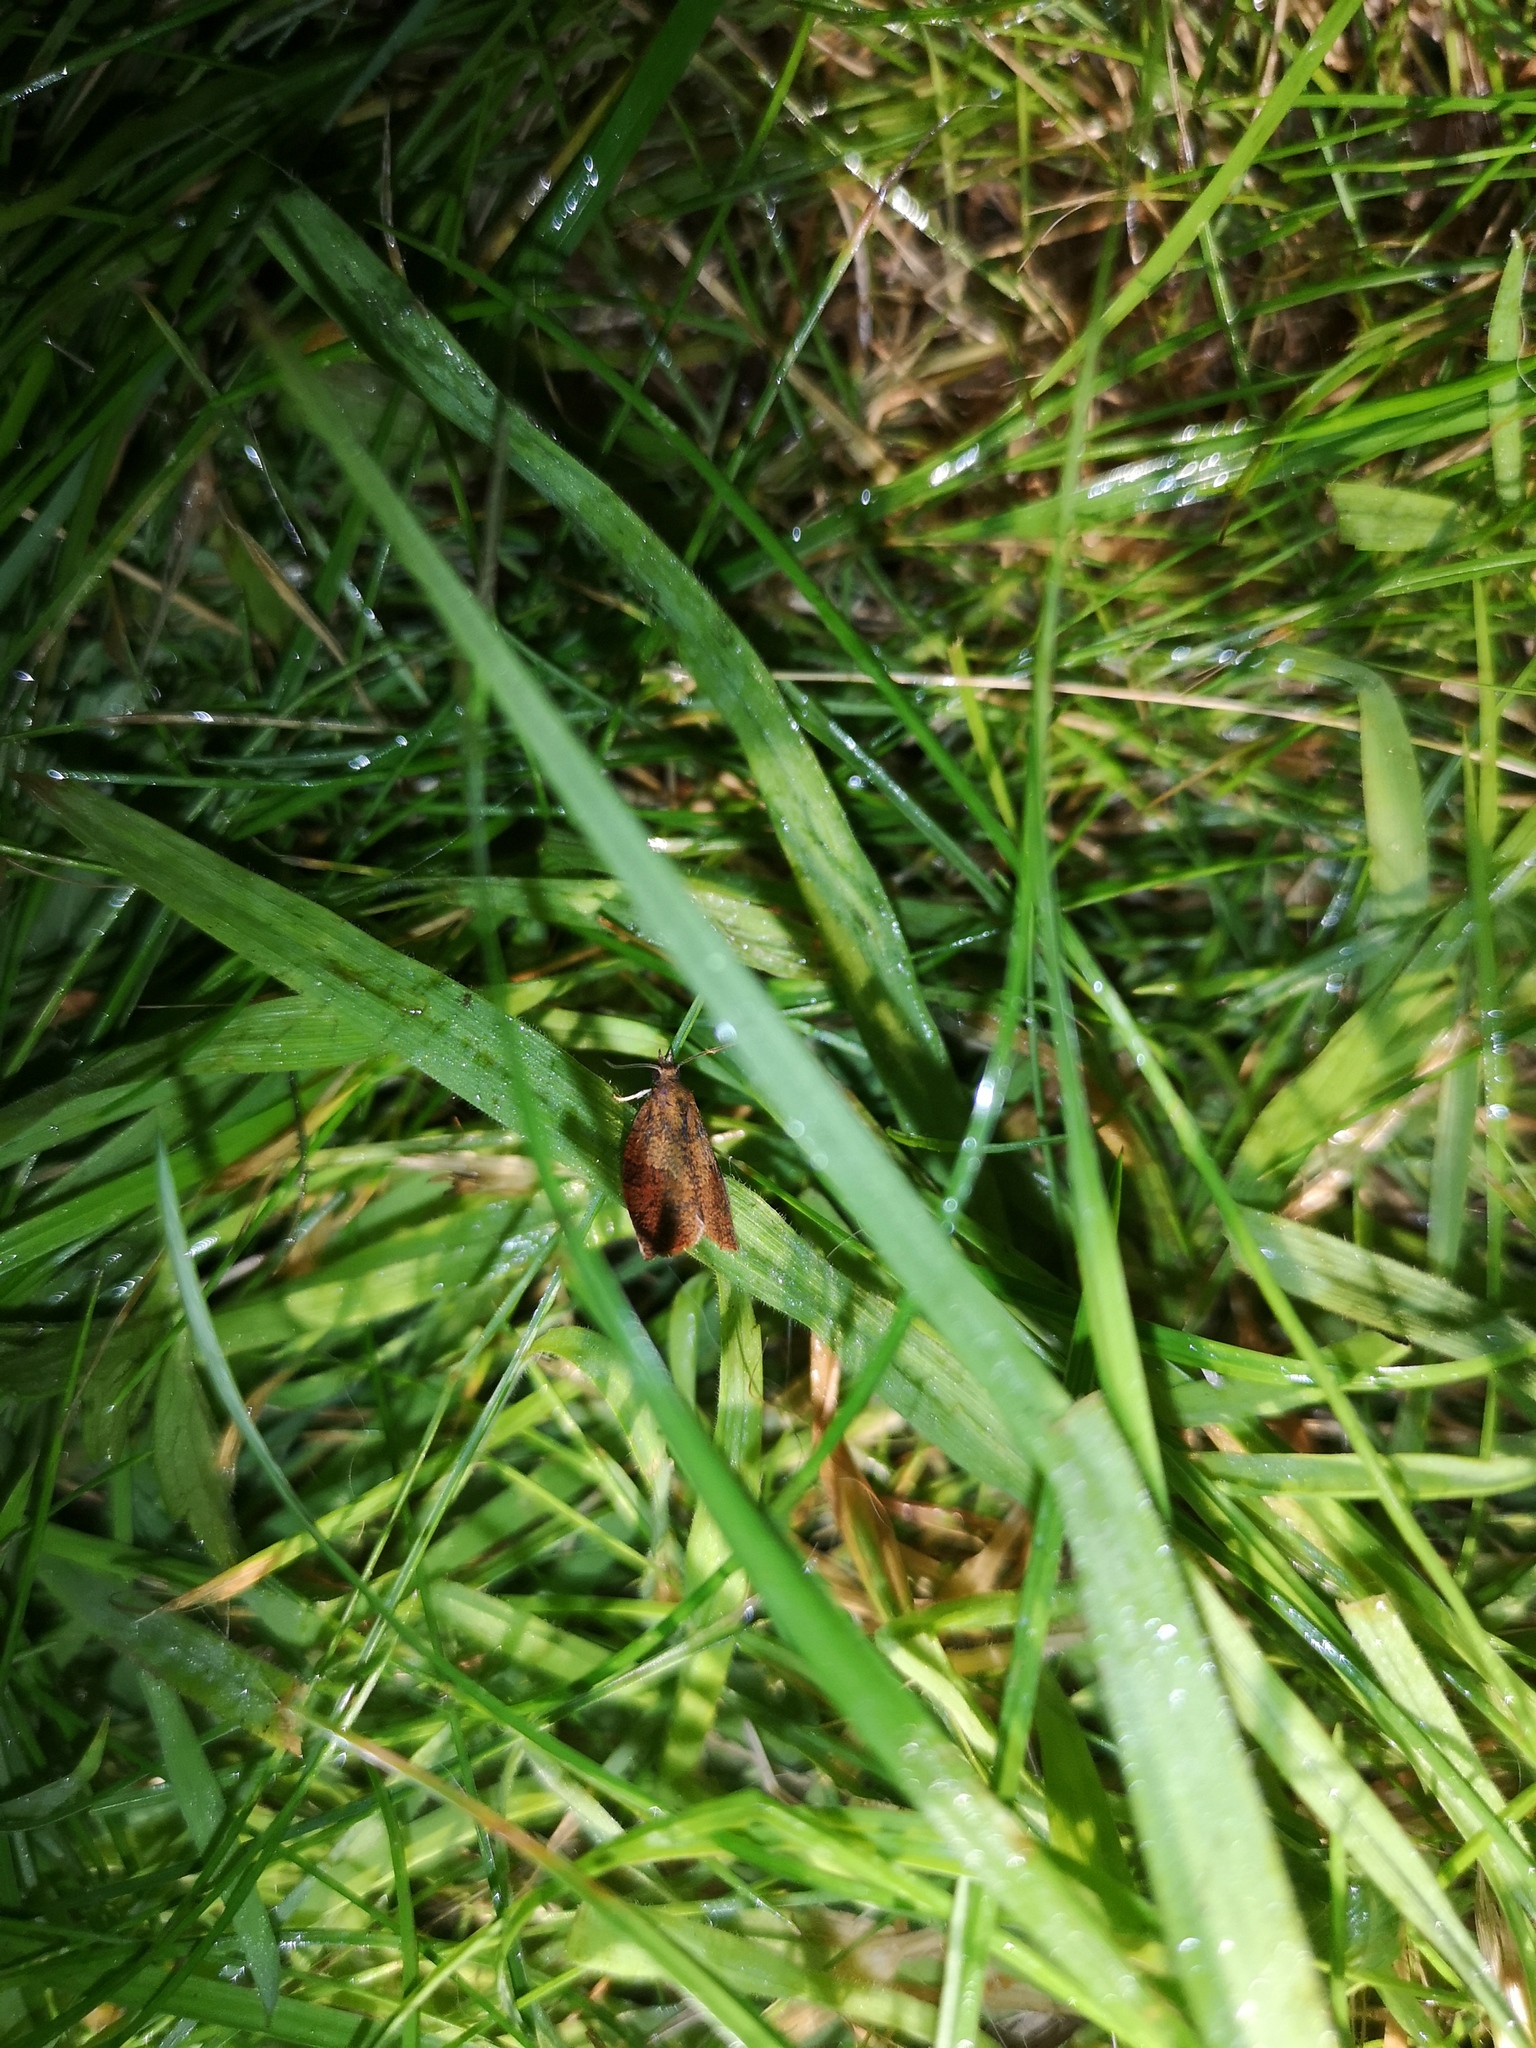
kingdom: Animalia
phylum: Arthropoda
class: Insecta
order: Lepidoptera
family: Tortricidae
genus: Pandemis
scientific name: Pandemis heparana
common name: Dark fruit-tree tortrix
